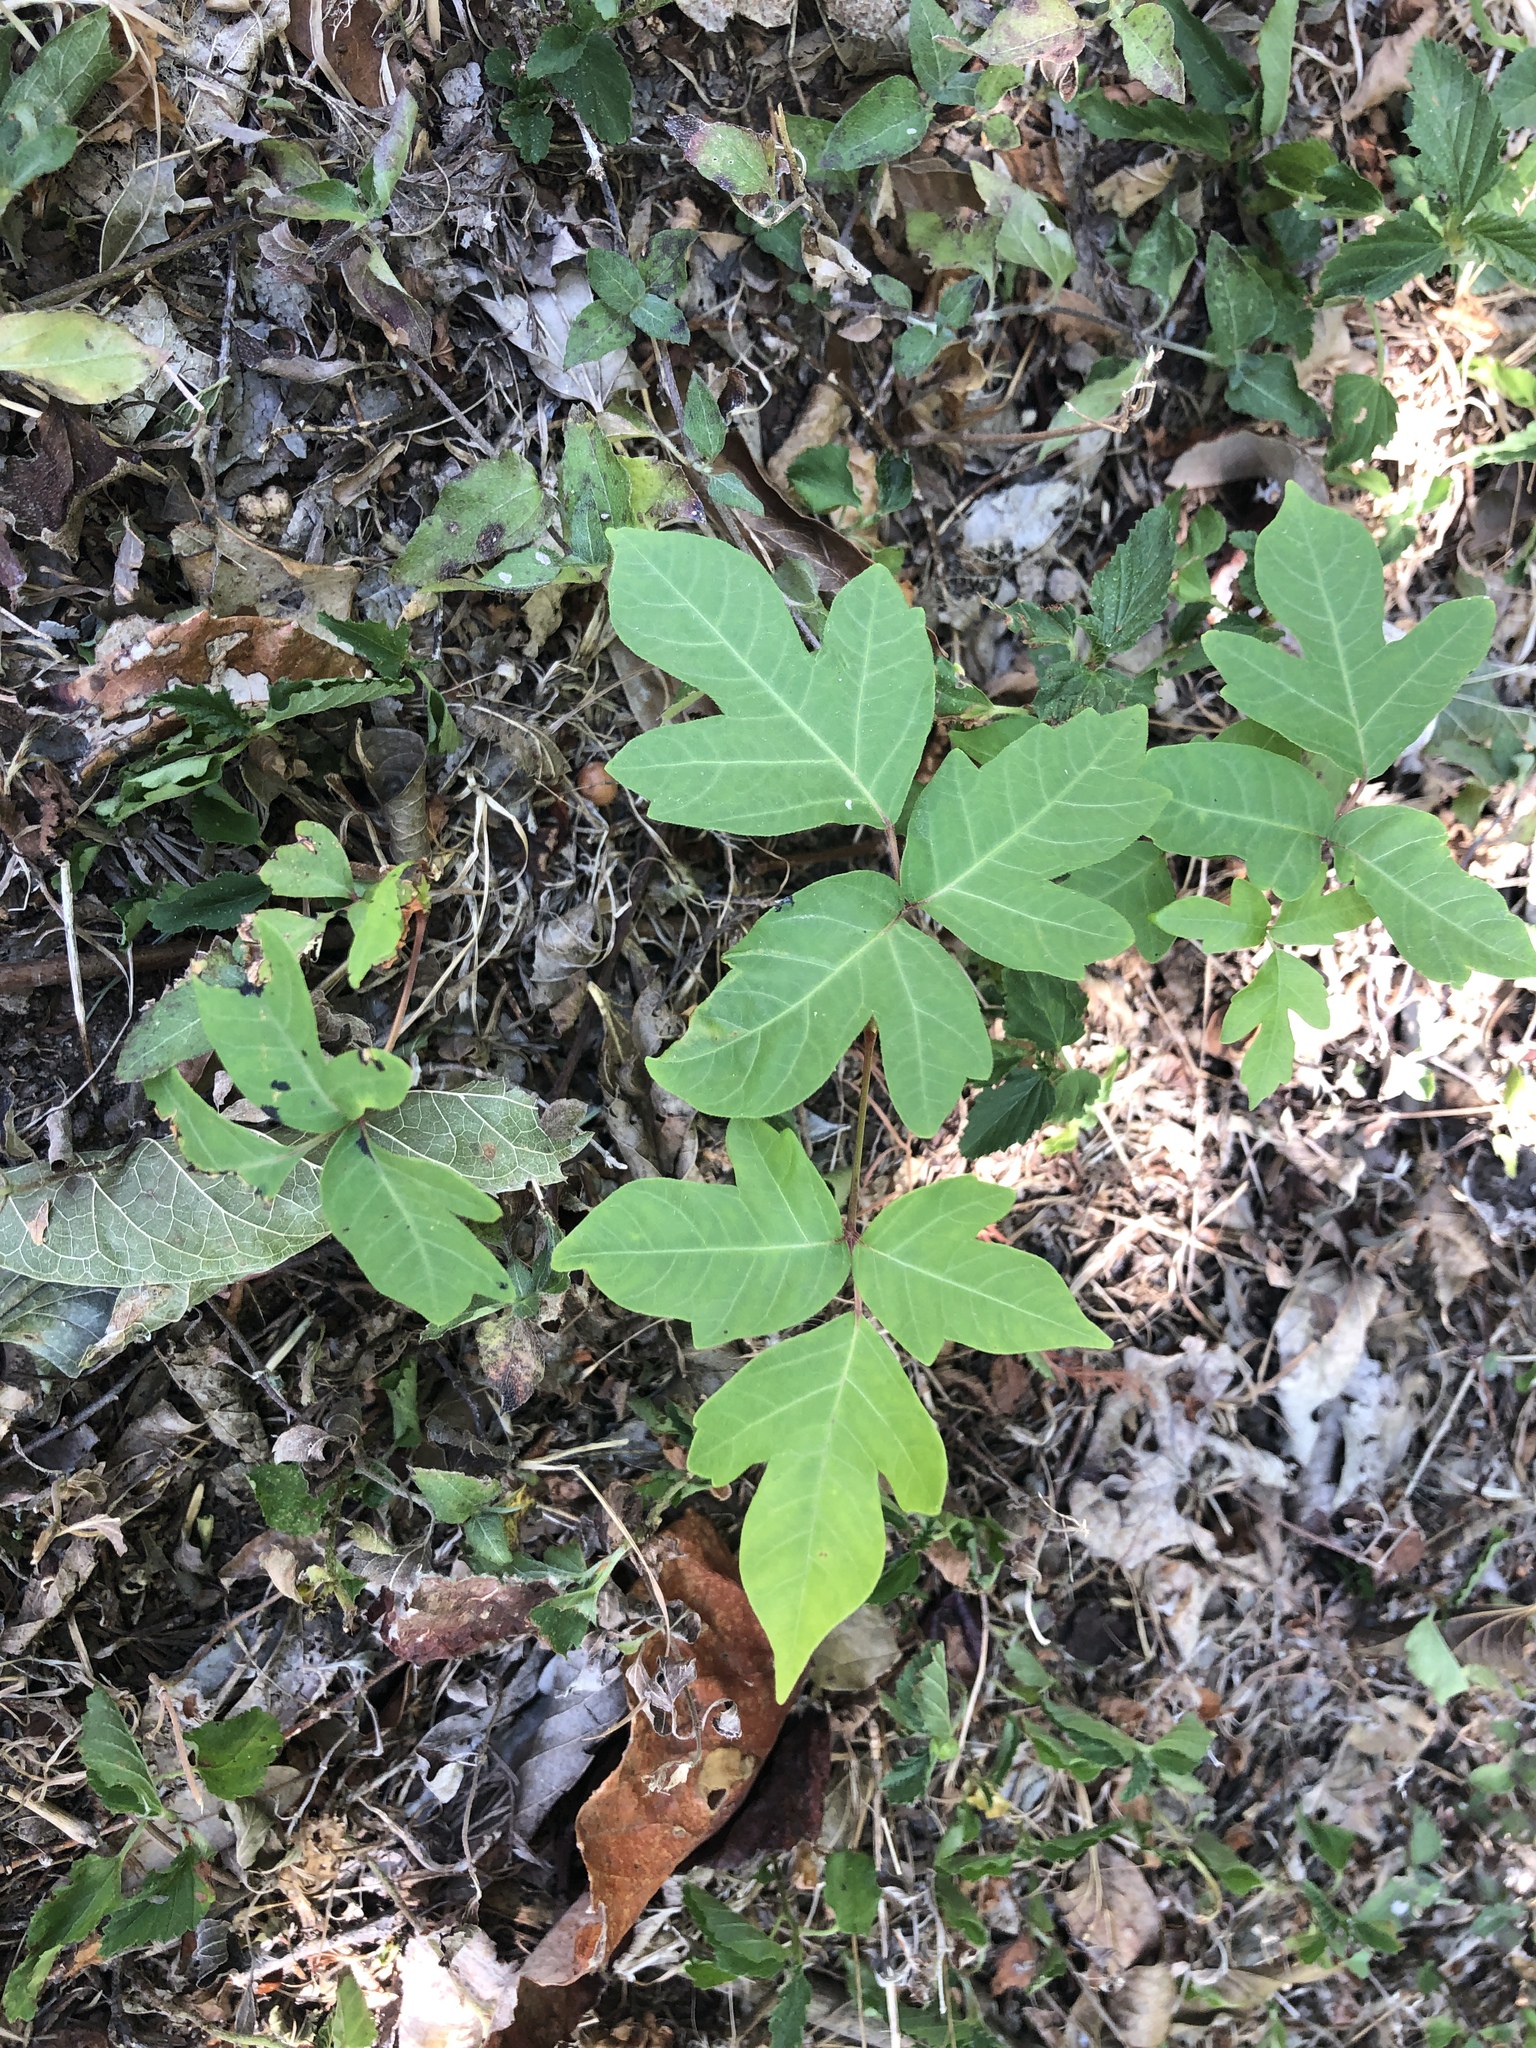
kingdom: Plantae
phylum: Tracheophyta
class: Magnoliopsida
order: Sapindales
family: Anacardiaceae
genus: Toxicodendron
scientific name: Toxicodendron radicans
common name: Poison ivy
